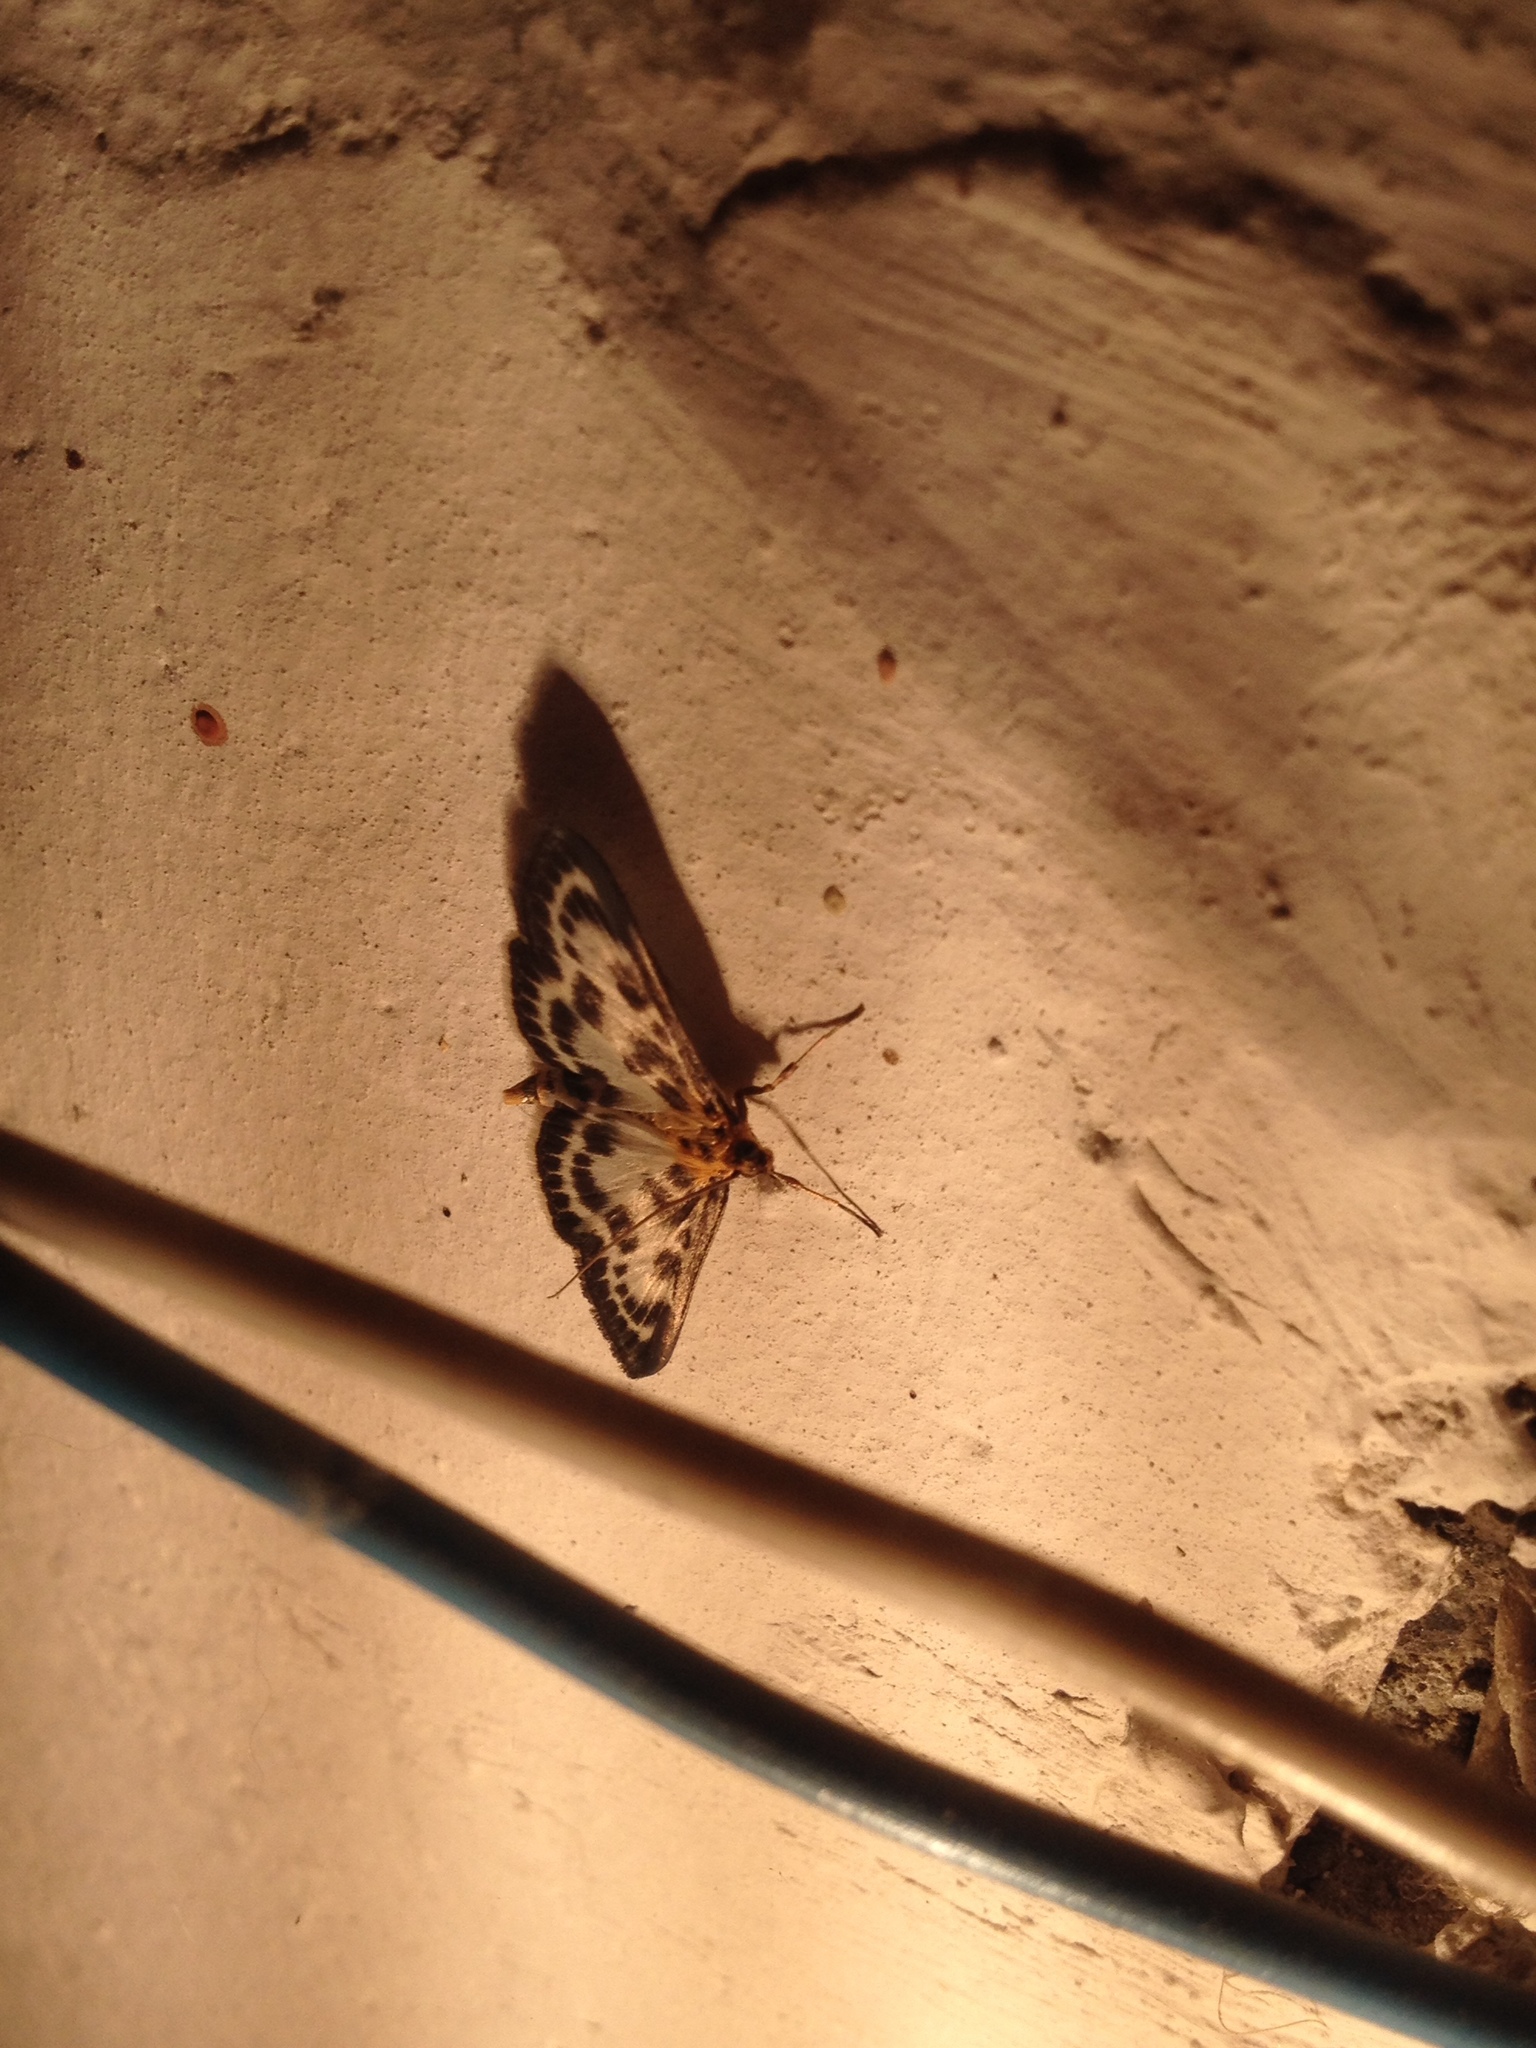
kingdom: Animalia
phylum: Arthropoda
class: Insecta
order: Lepidoptera
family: Crambidae
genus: Anania
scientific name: Anania hortulata
